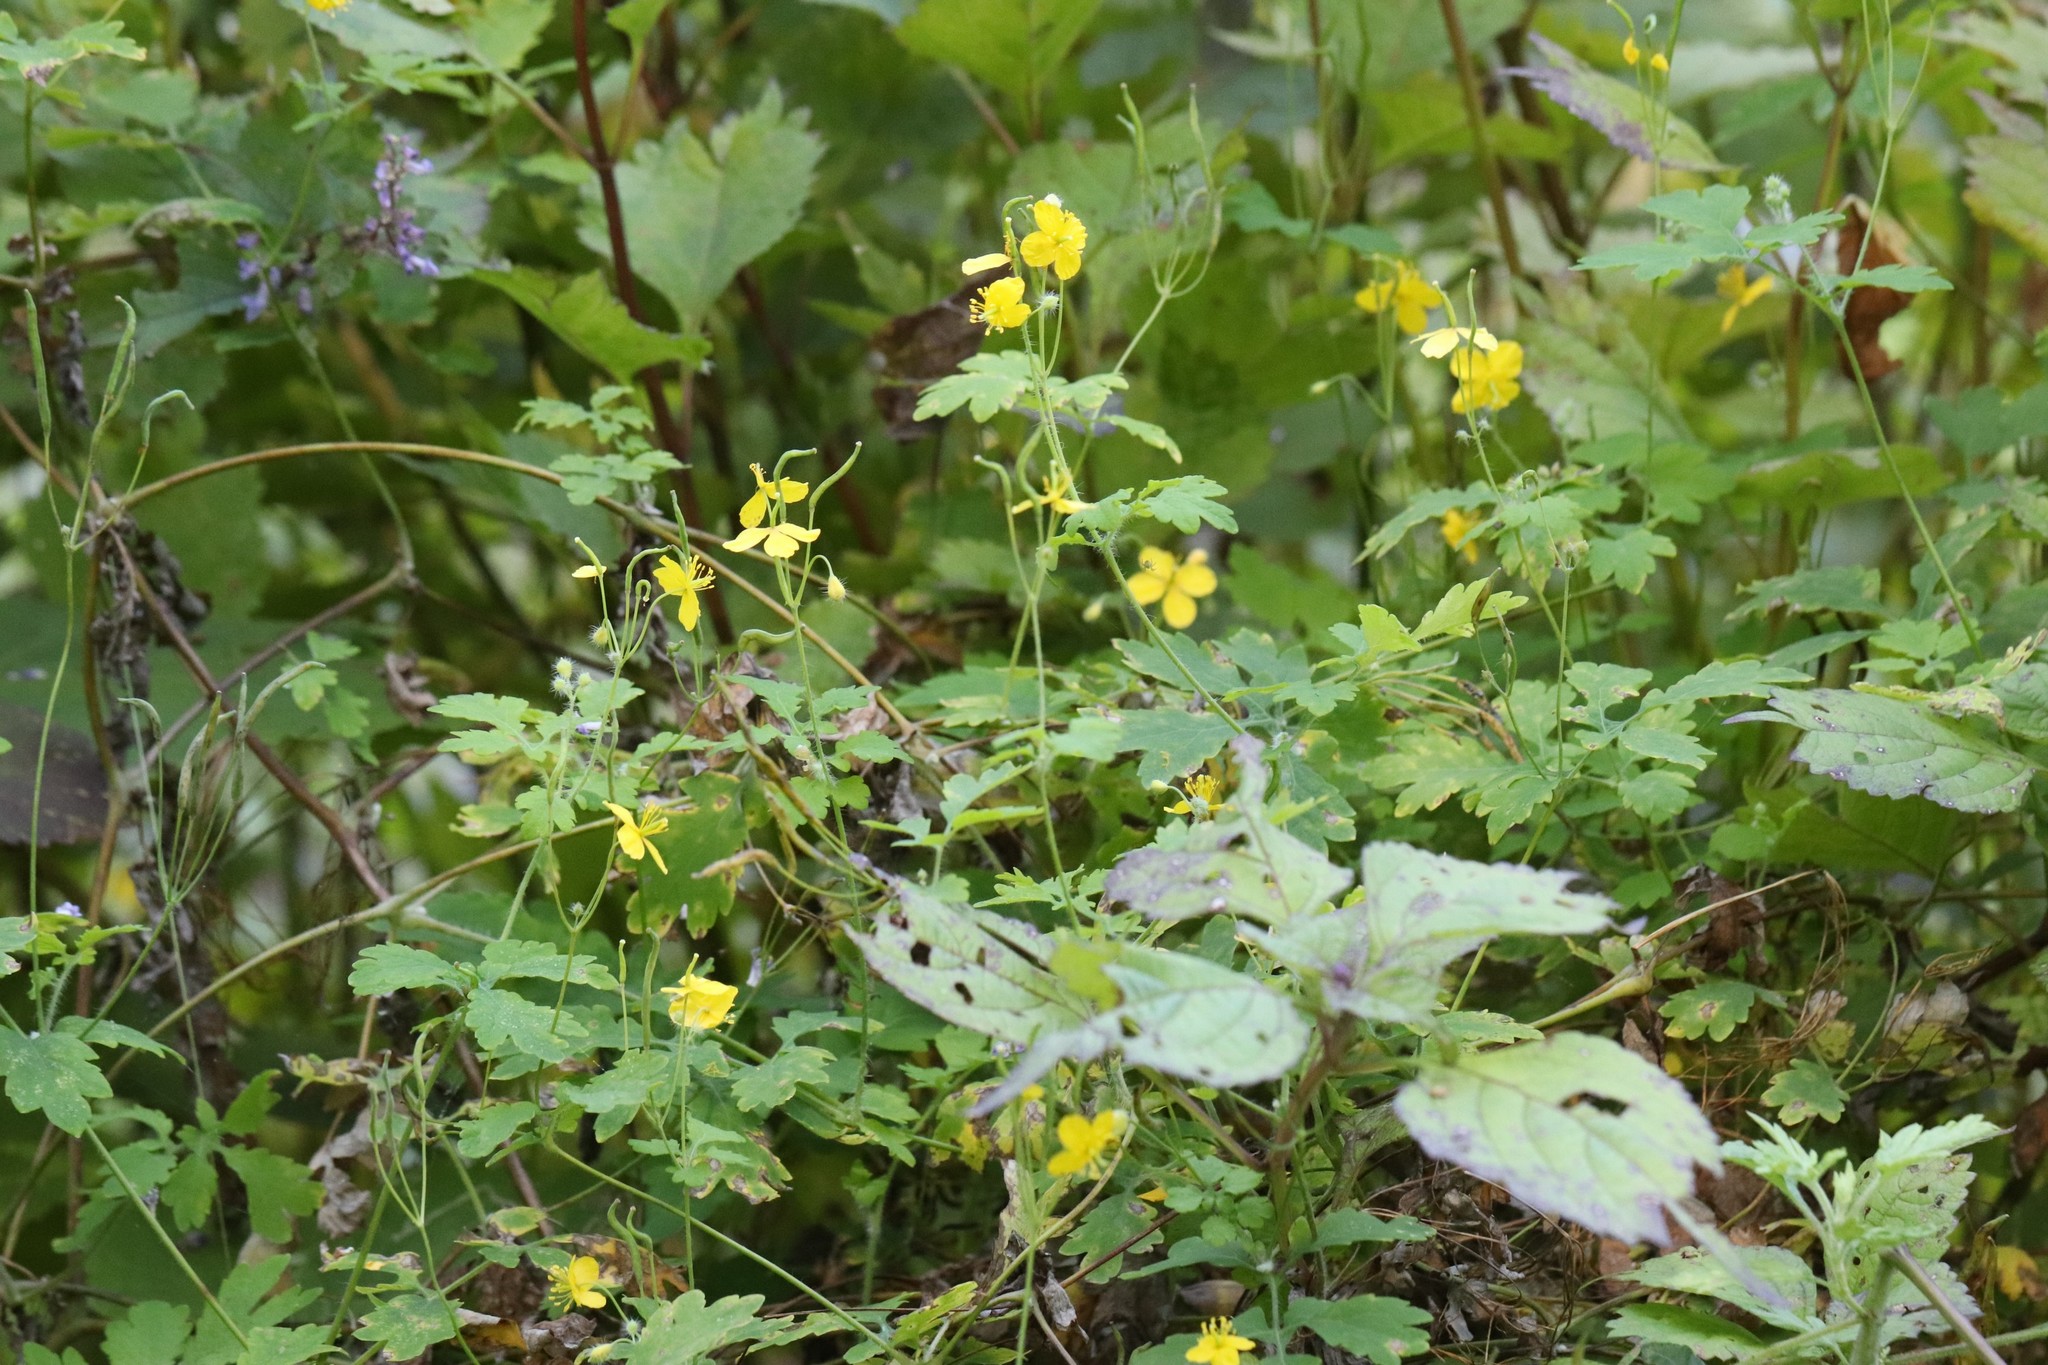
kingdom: Plantae
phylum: Tracheophyta
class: Magnoliopsida
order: Ranunculales
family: Papaveraceae
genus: Chelidonium
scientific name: Chelidonium majus
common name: Greater celandine
